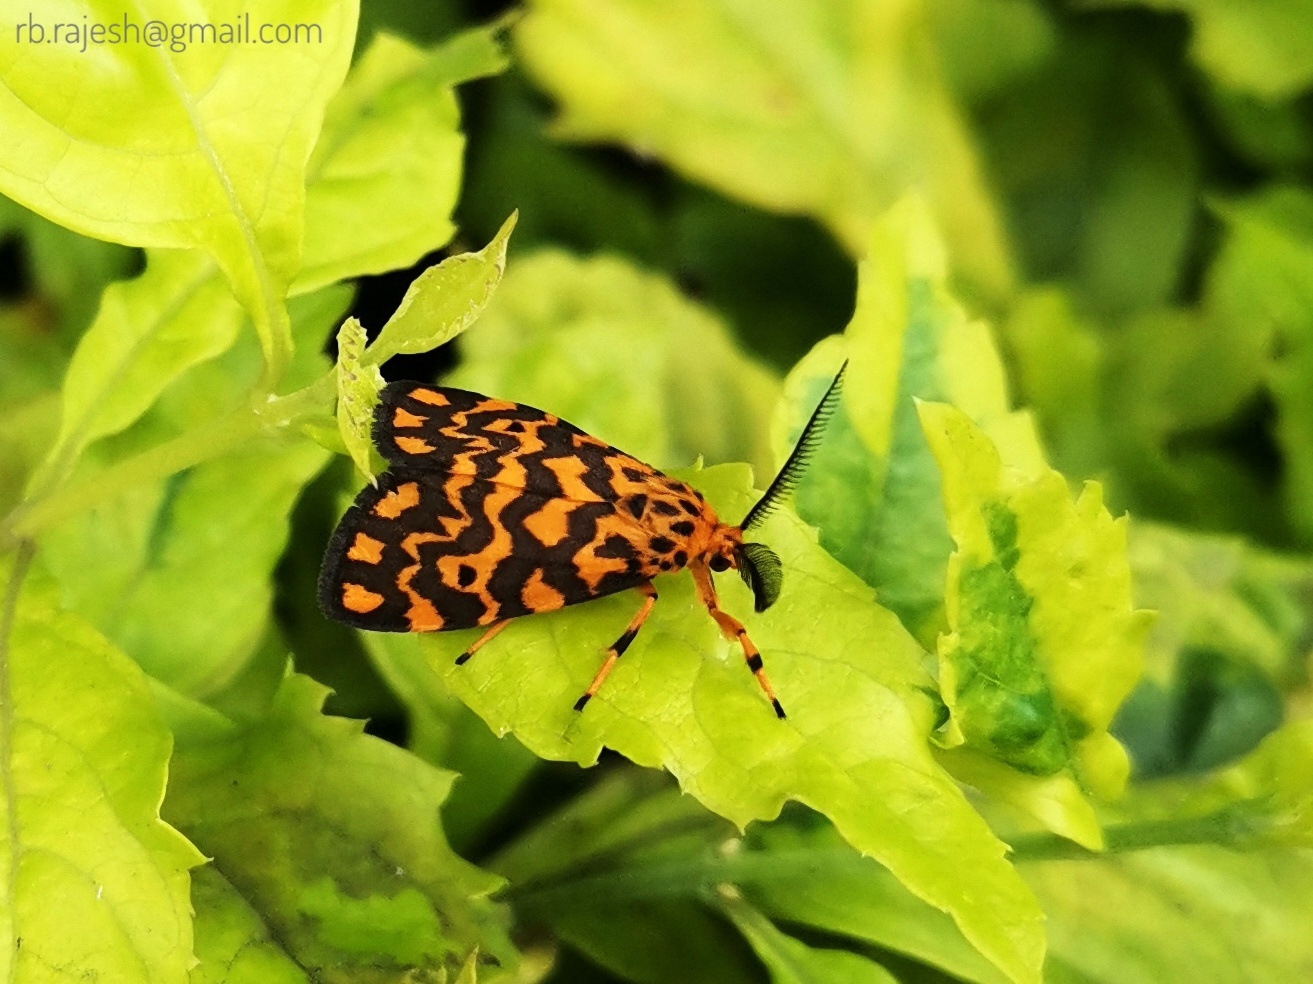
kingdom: Animalia
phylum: Arthropoda
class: Insecta
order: Lepidoptera
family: Erebidae
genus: Nepita
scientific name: Nepita conferta
